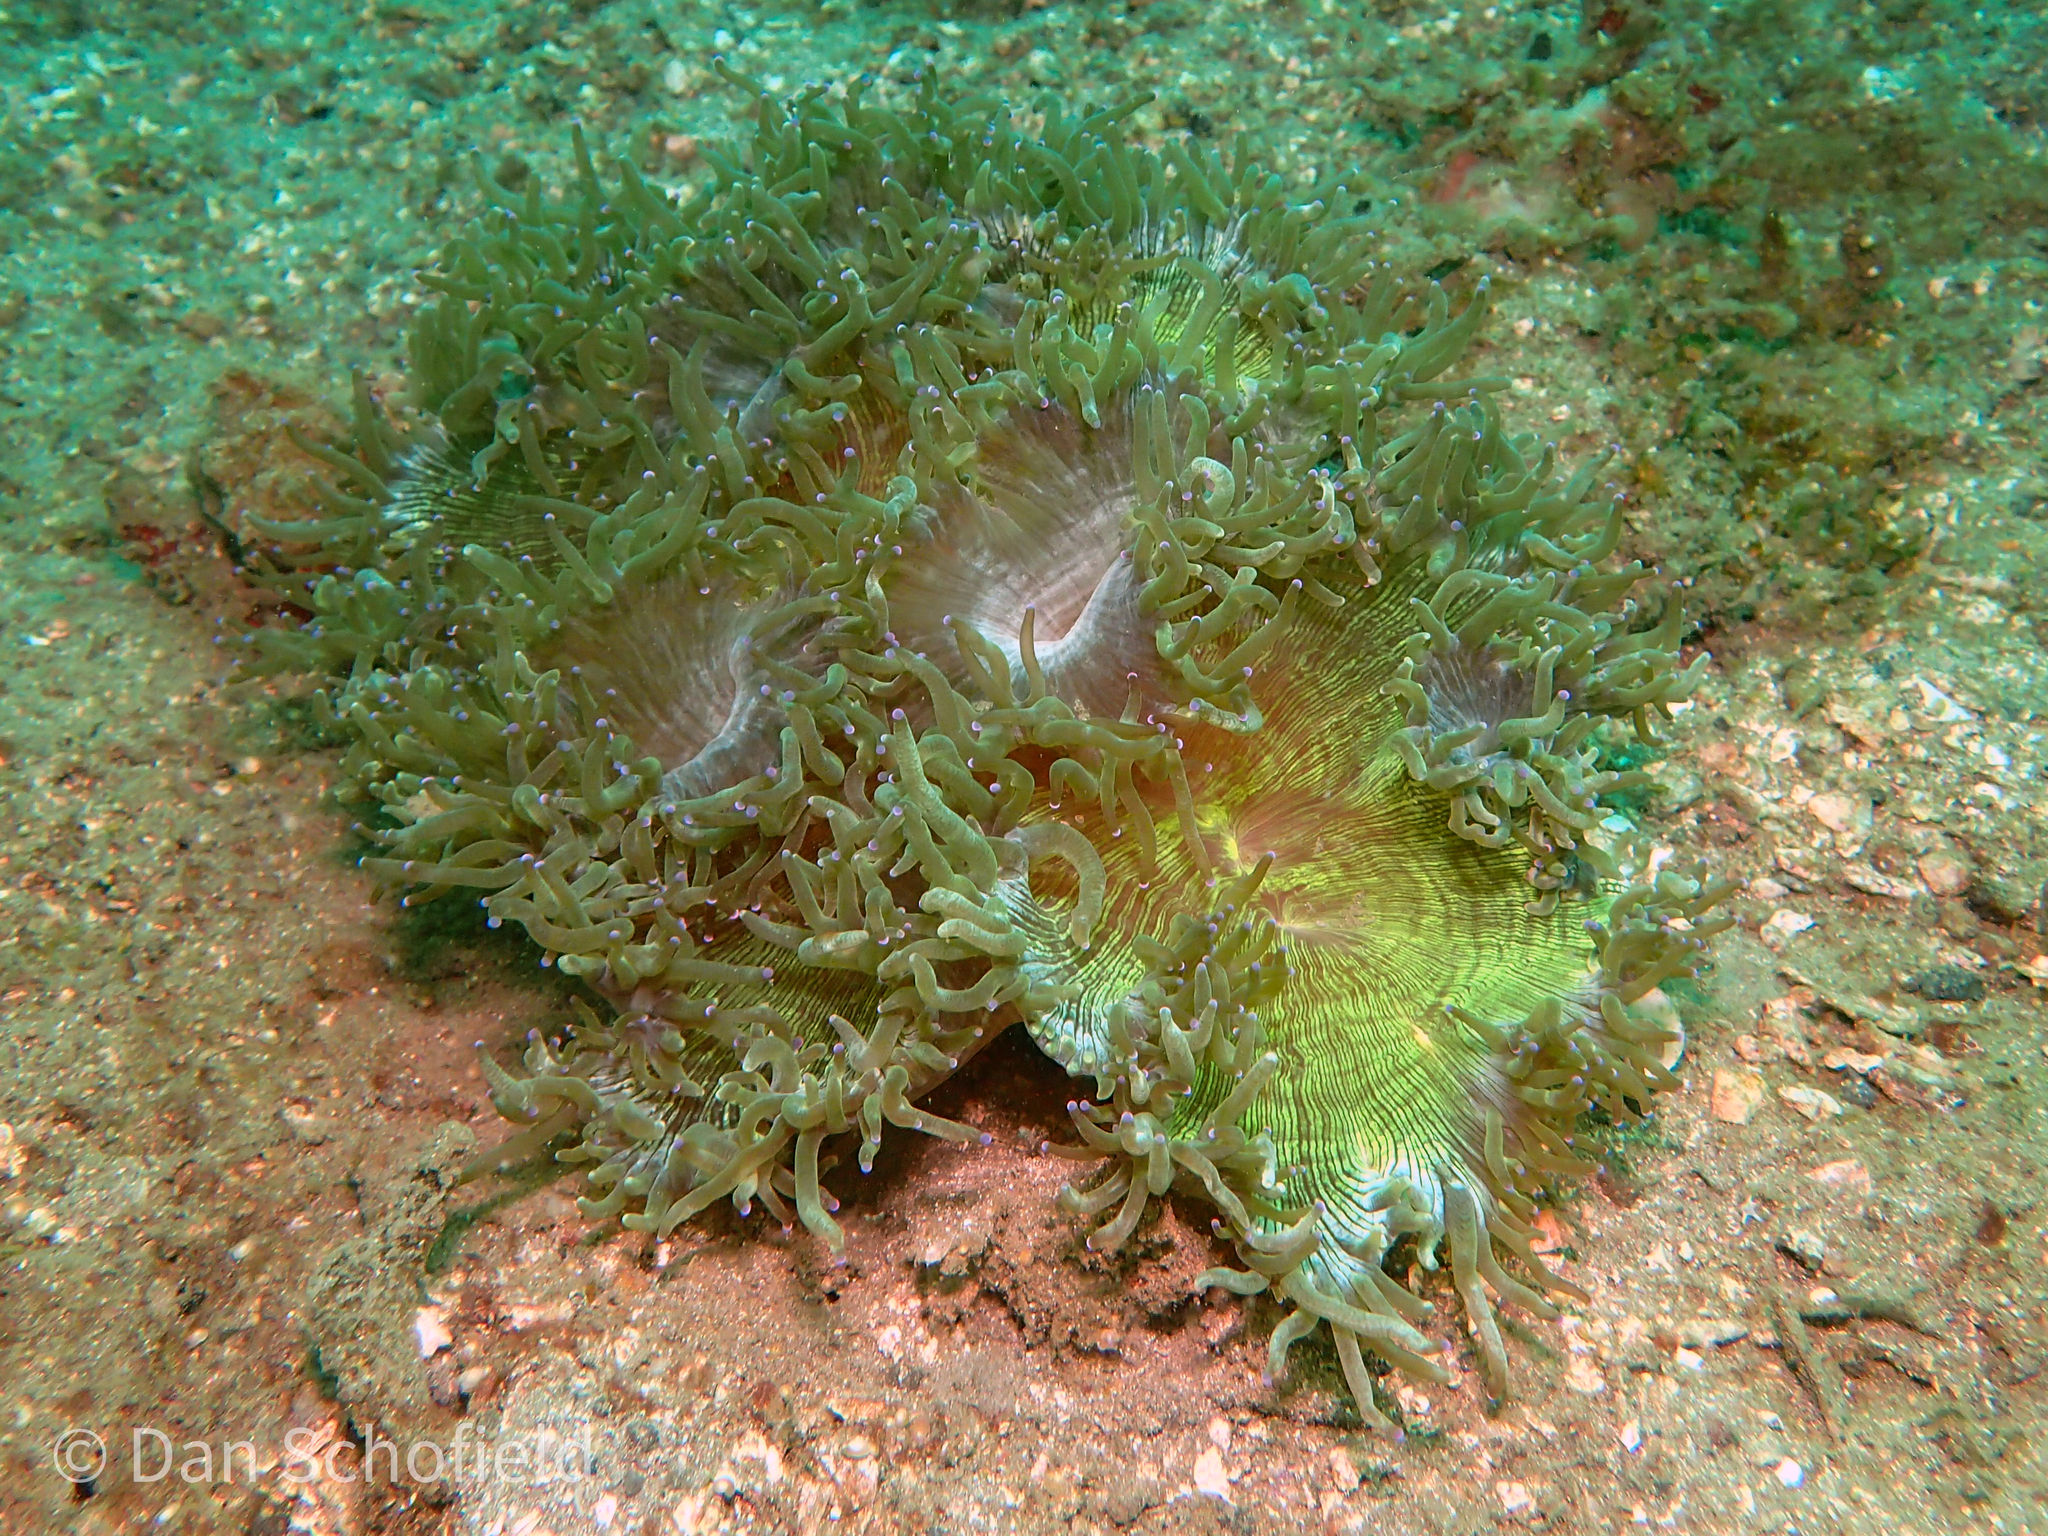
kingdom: Animalia
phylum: Cnidaria
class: Anthozoa
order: Scleractinia
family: Merulinidae
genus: Catalaphyllia
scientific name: Catalaphyllia jardinei
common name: Wonder coral
